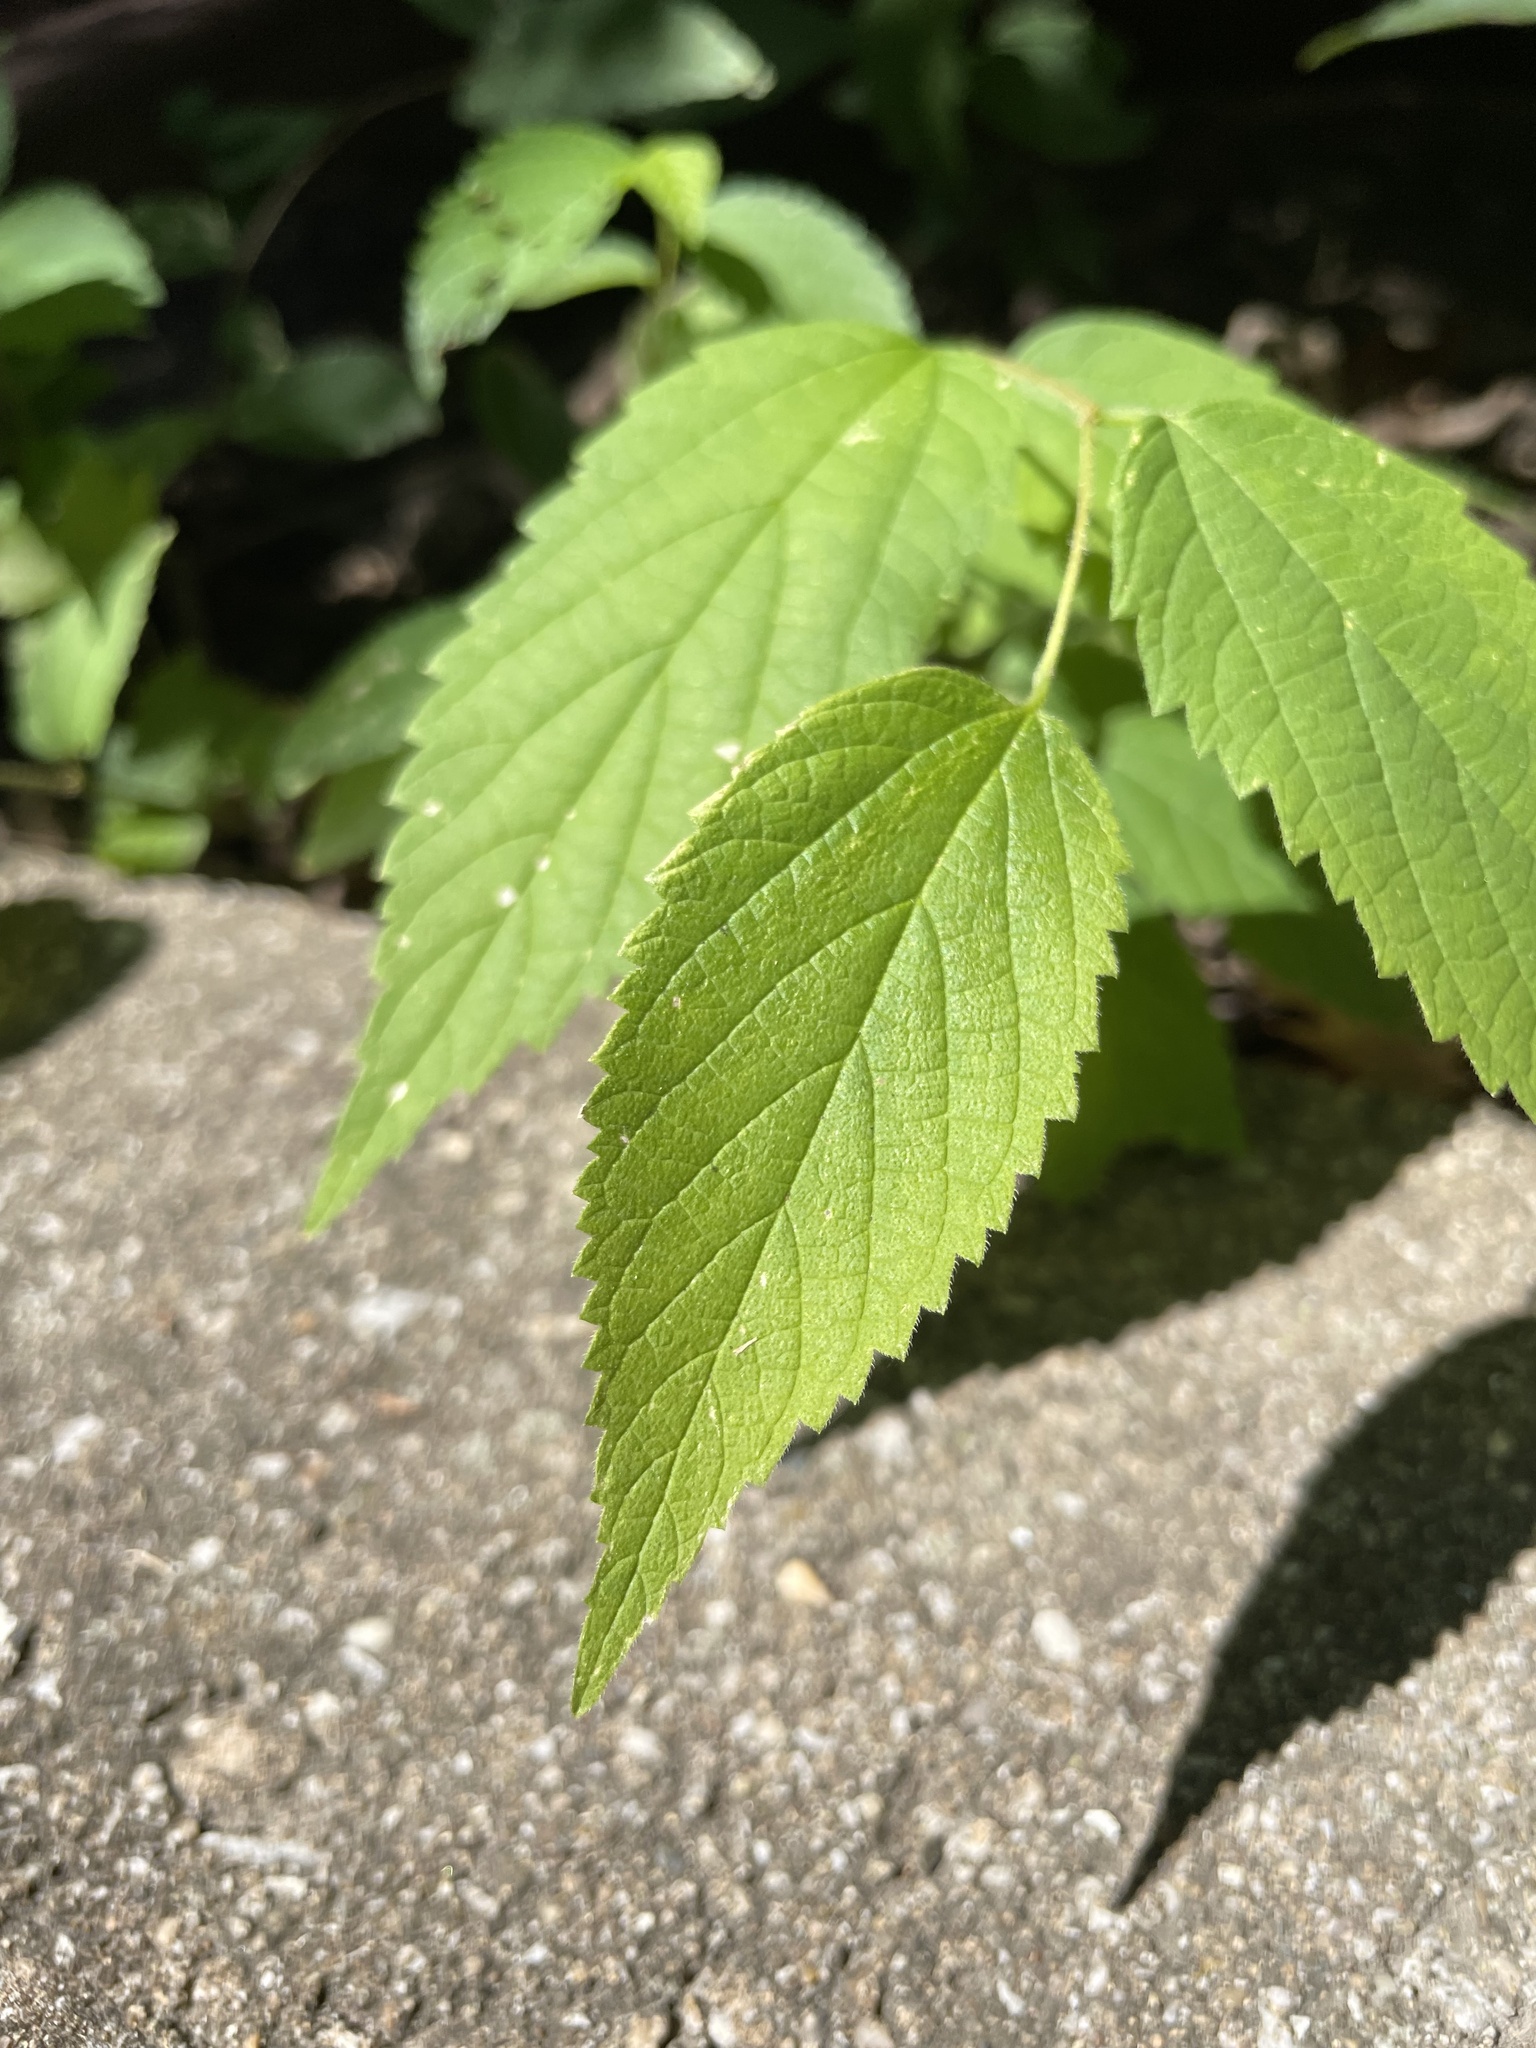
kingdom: Plantae
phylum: Tracheophyta
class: Magnoliopsida
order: Rosales
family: Cannabaceae
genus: Celtis
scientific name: Celtis occidentalis
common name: Common hackberry
